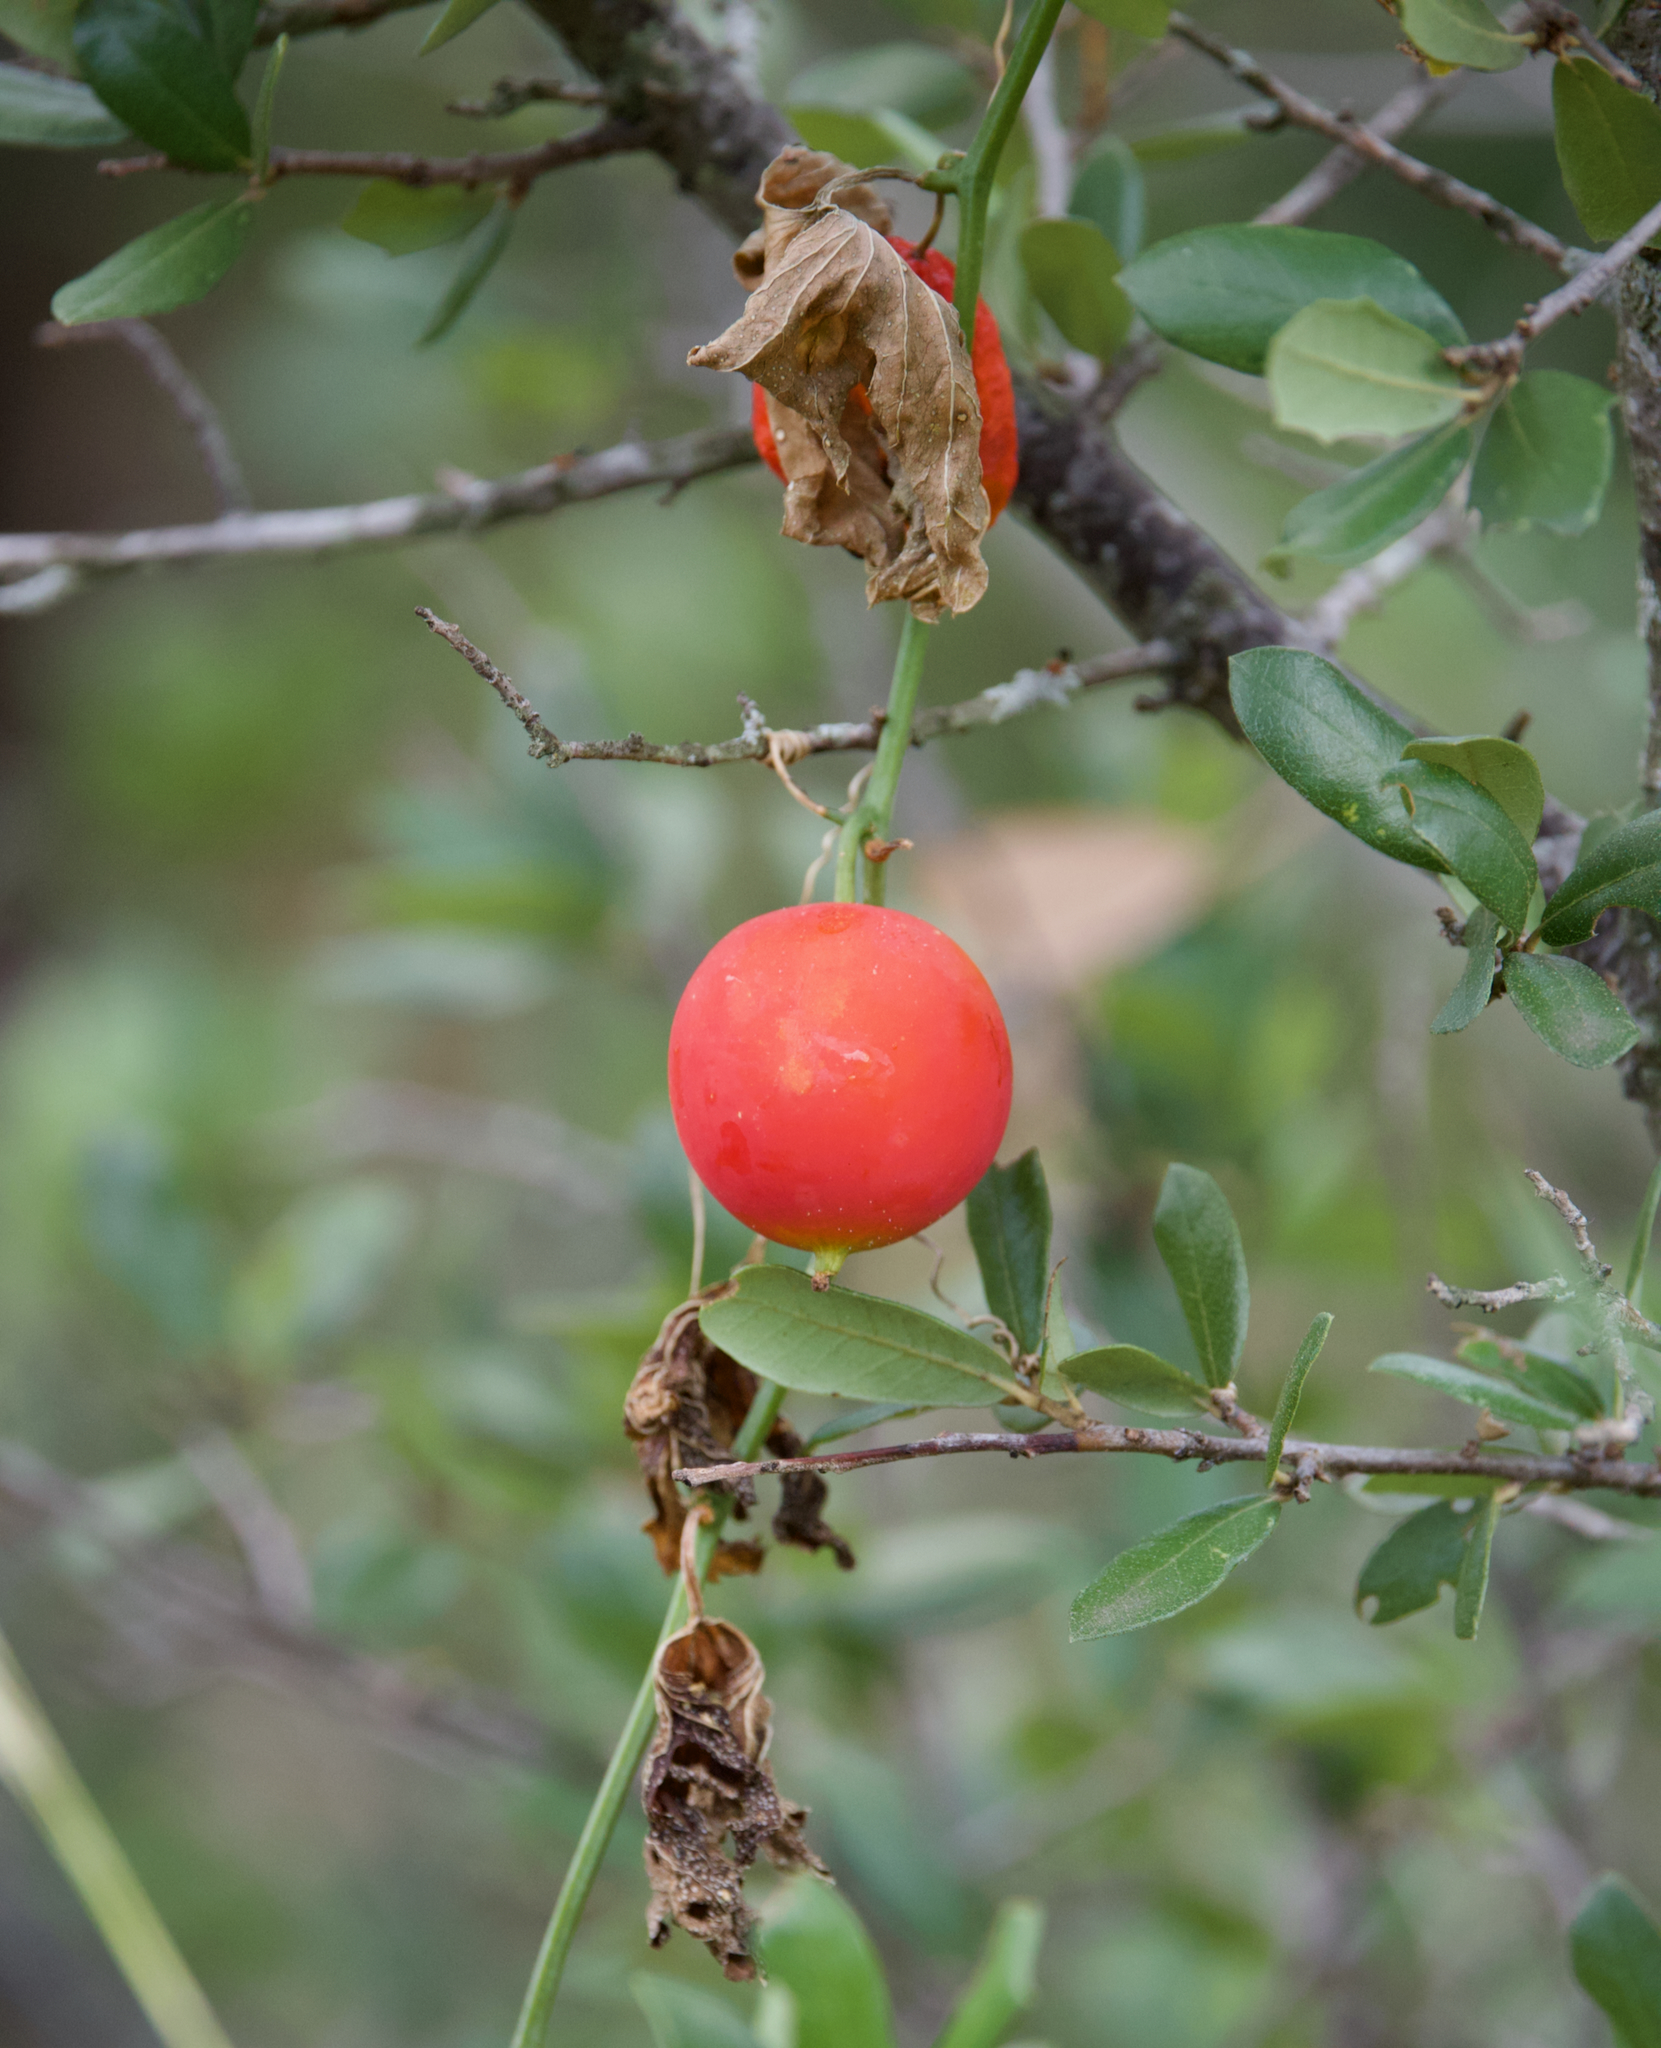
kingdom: Plantae
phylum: Tracheophyta
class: Magnoliopsida
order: Cucurbitales
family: Cucurbitaceae
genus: Ibervillea
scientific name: Ibervillea lindheimeri
